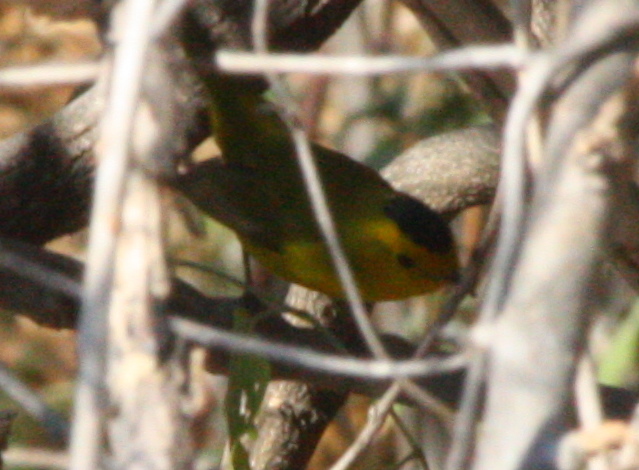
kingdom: Animalia
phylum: Chordata
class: Aves
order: Passeriformes
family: Parulidae
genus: Cardellina
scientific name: Cardellina pusilla
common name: Wilson's warbler
